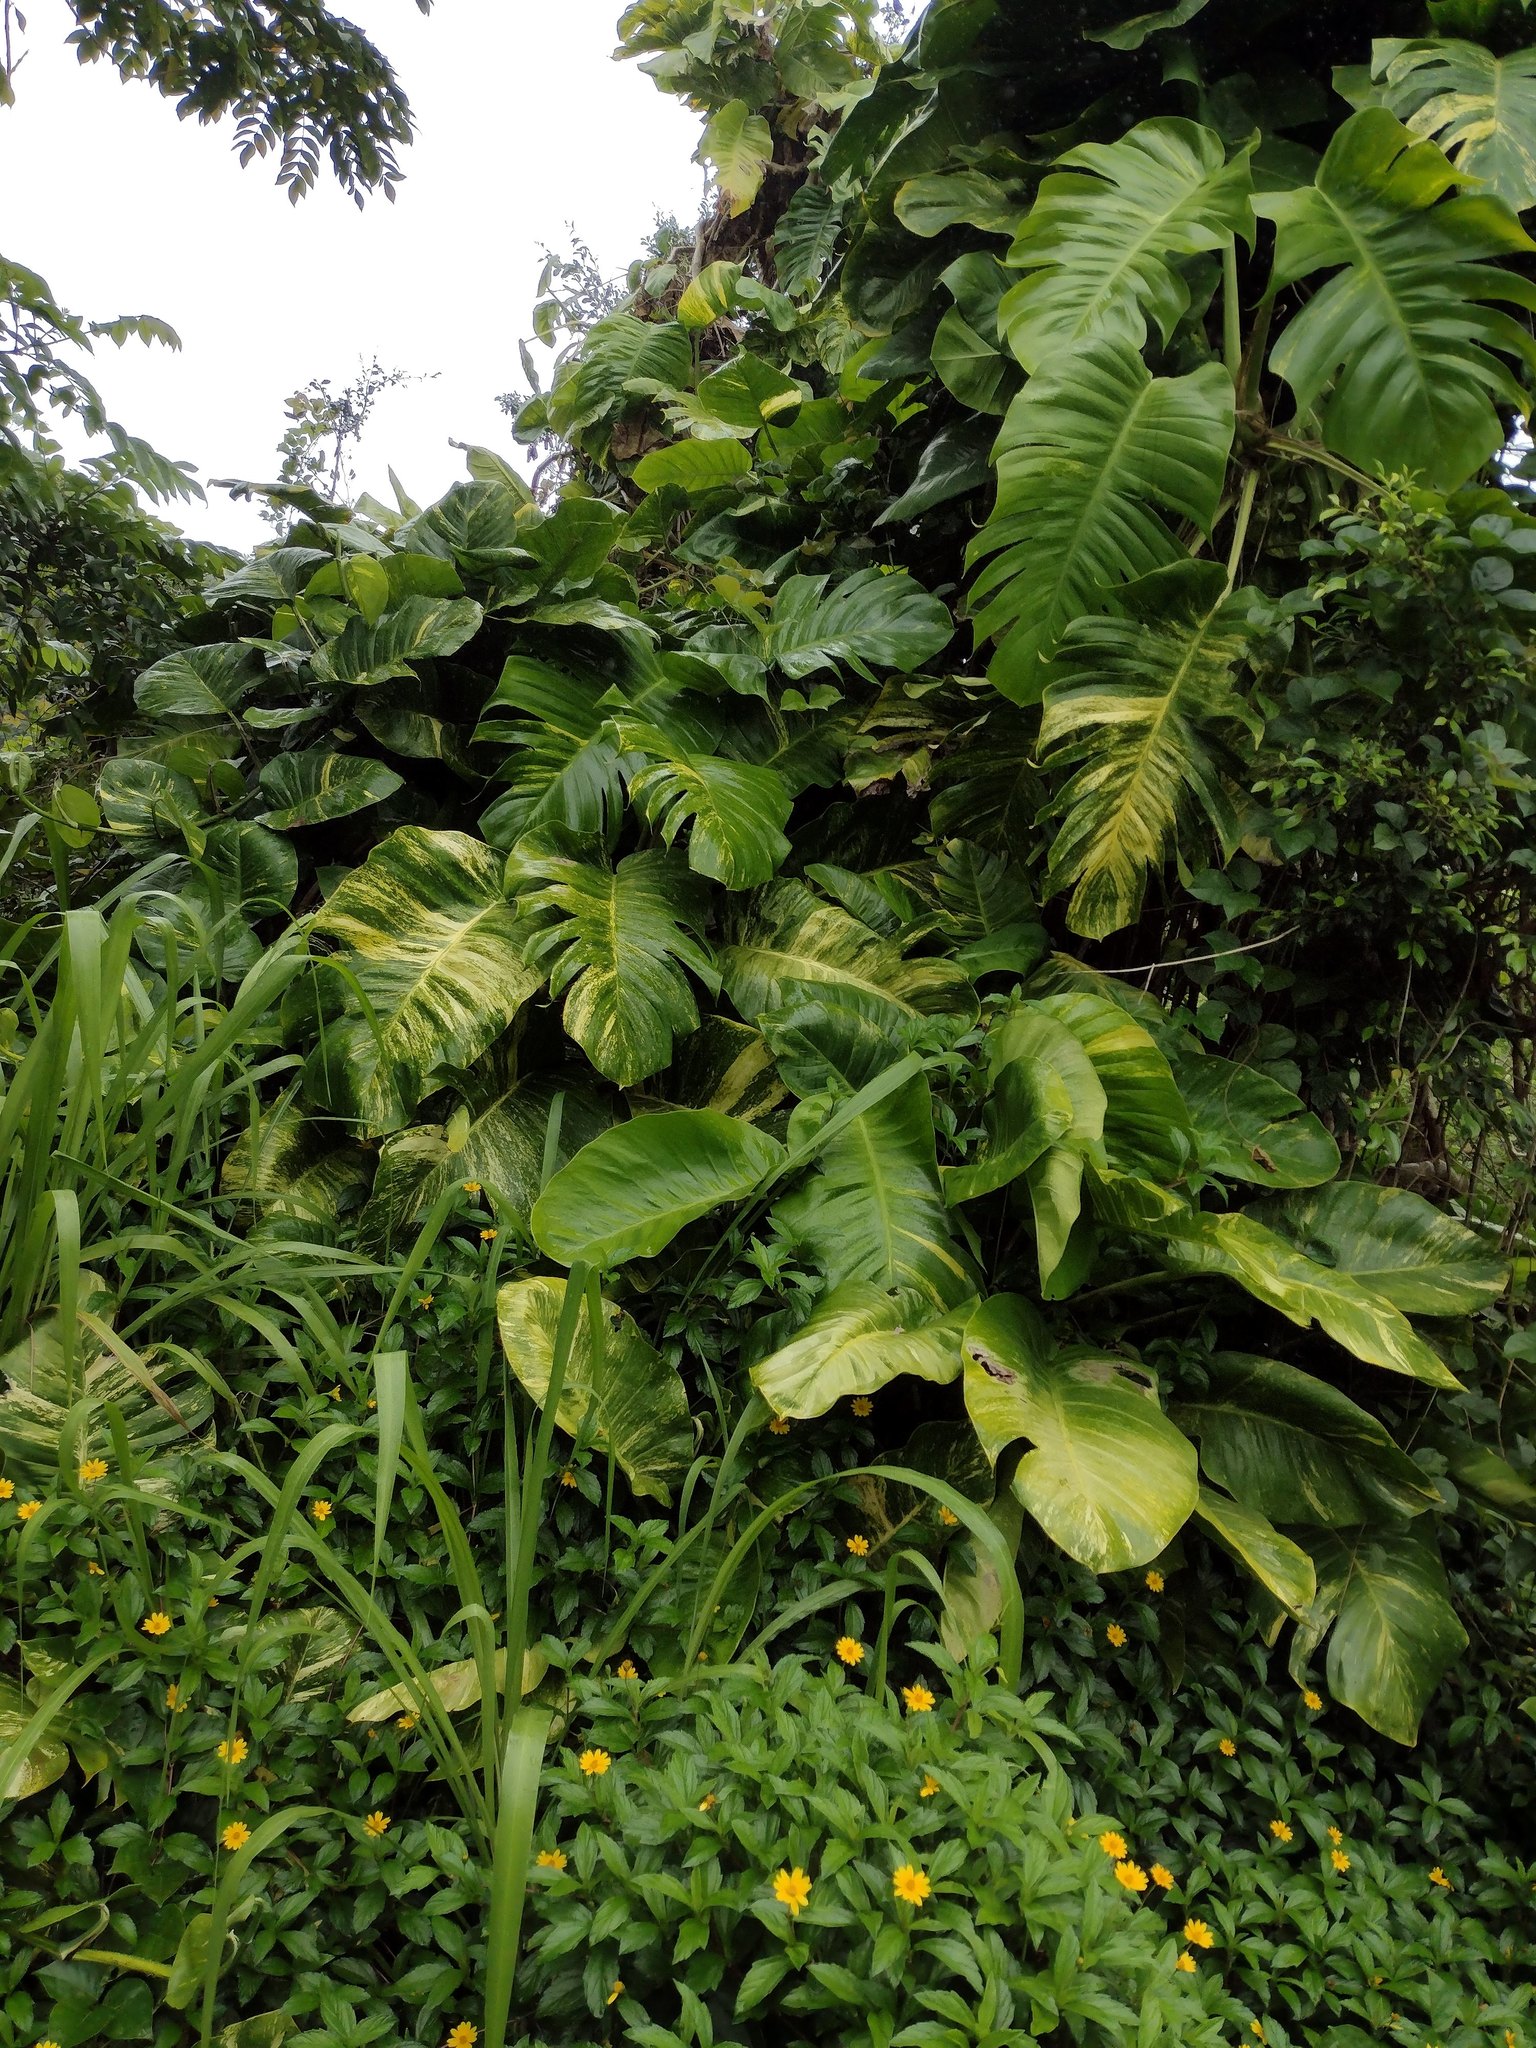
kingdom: Plantae
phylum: Tracheophyta
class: Liliopsida
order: Alismatales
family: Araceae
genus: Epipremnum
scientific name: Epipremnum aureum
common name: Golden hunter's-robe
